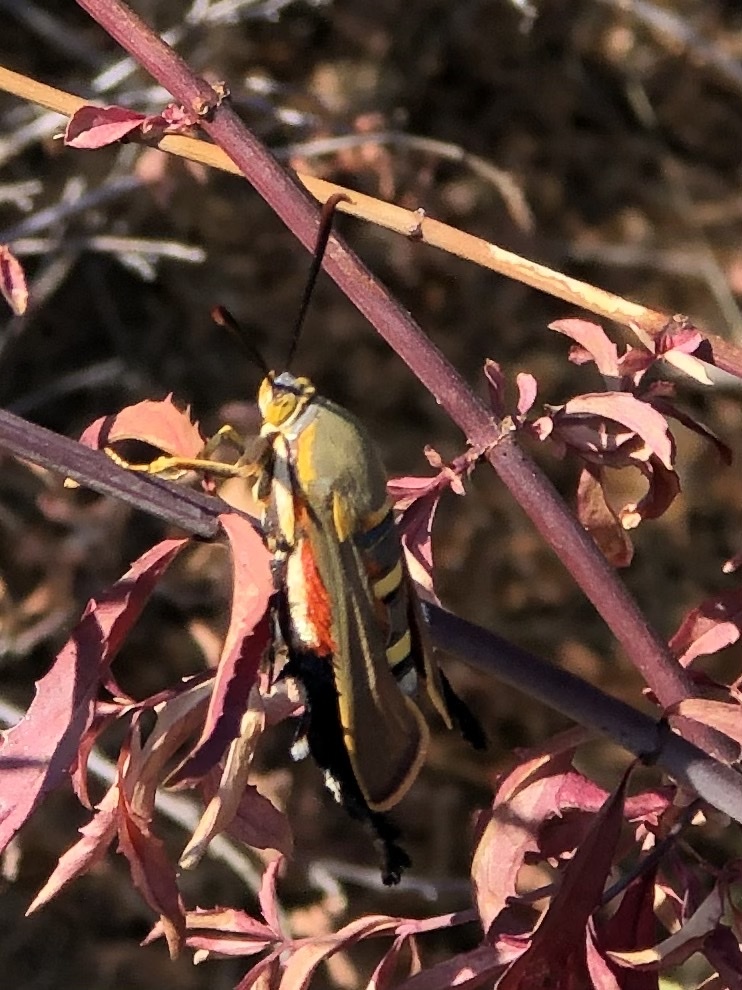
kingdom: Animalia
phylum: Arthropoda
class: Insecta
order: Lepidoptera
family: Sesiidae
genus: Eichlinia
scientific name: Eichlinia gloriosa
